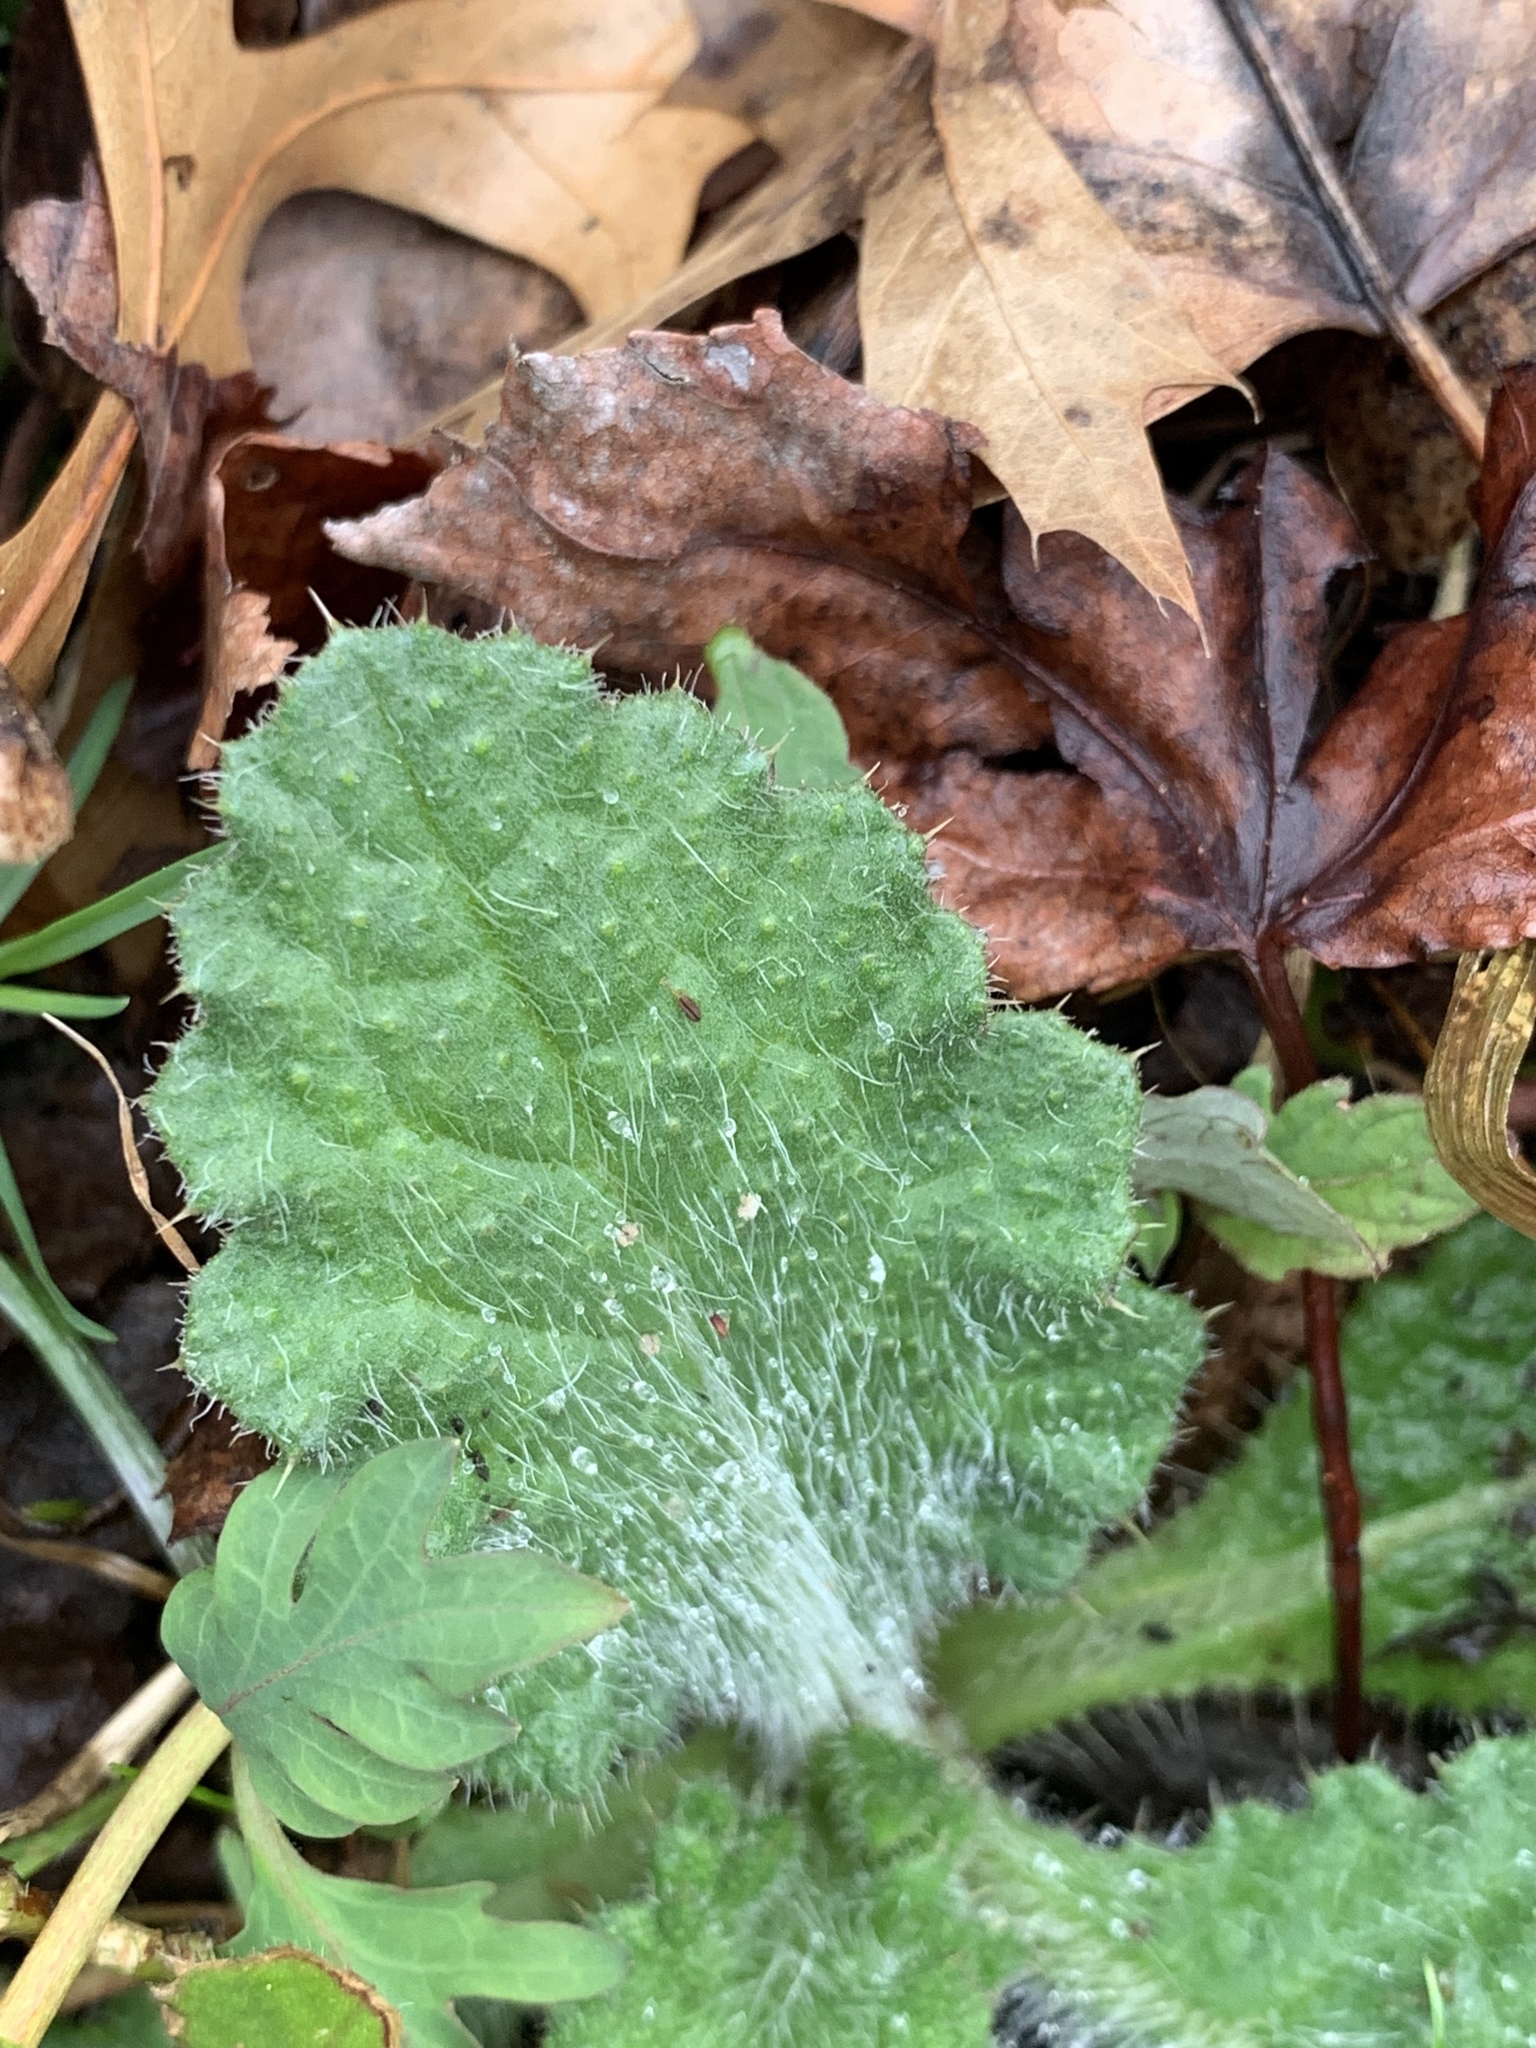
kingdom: Plantae
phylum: Tracheophyta
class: Magnoliopsida
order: Asterales
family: Asteraceae
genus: Cirsium
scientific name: Cirsium vulgare
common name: Bull thistle
